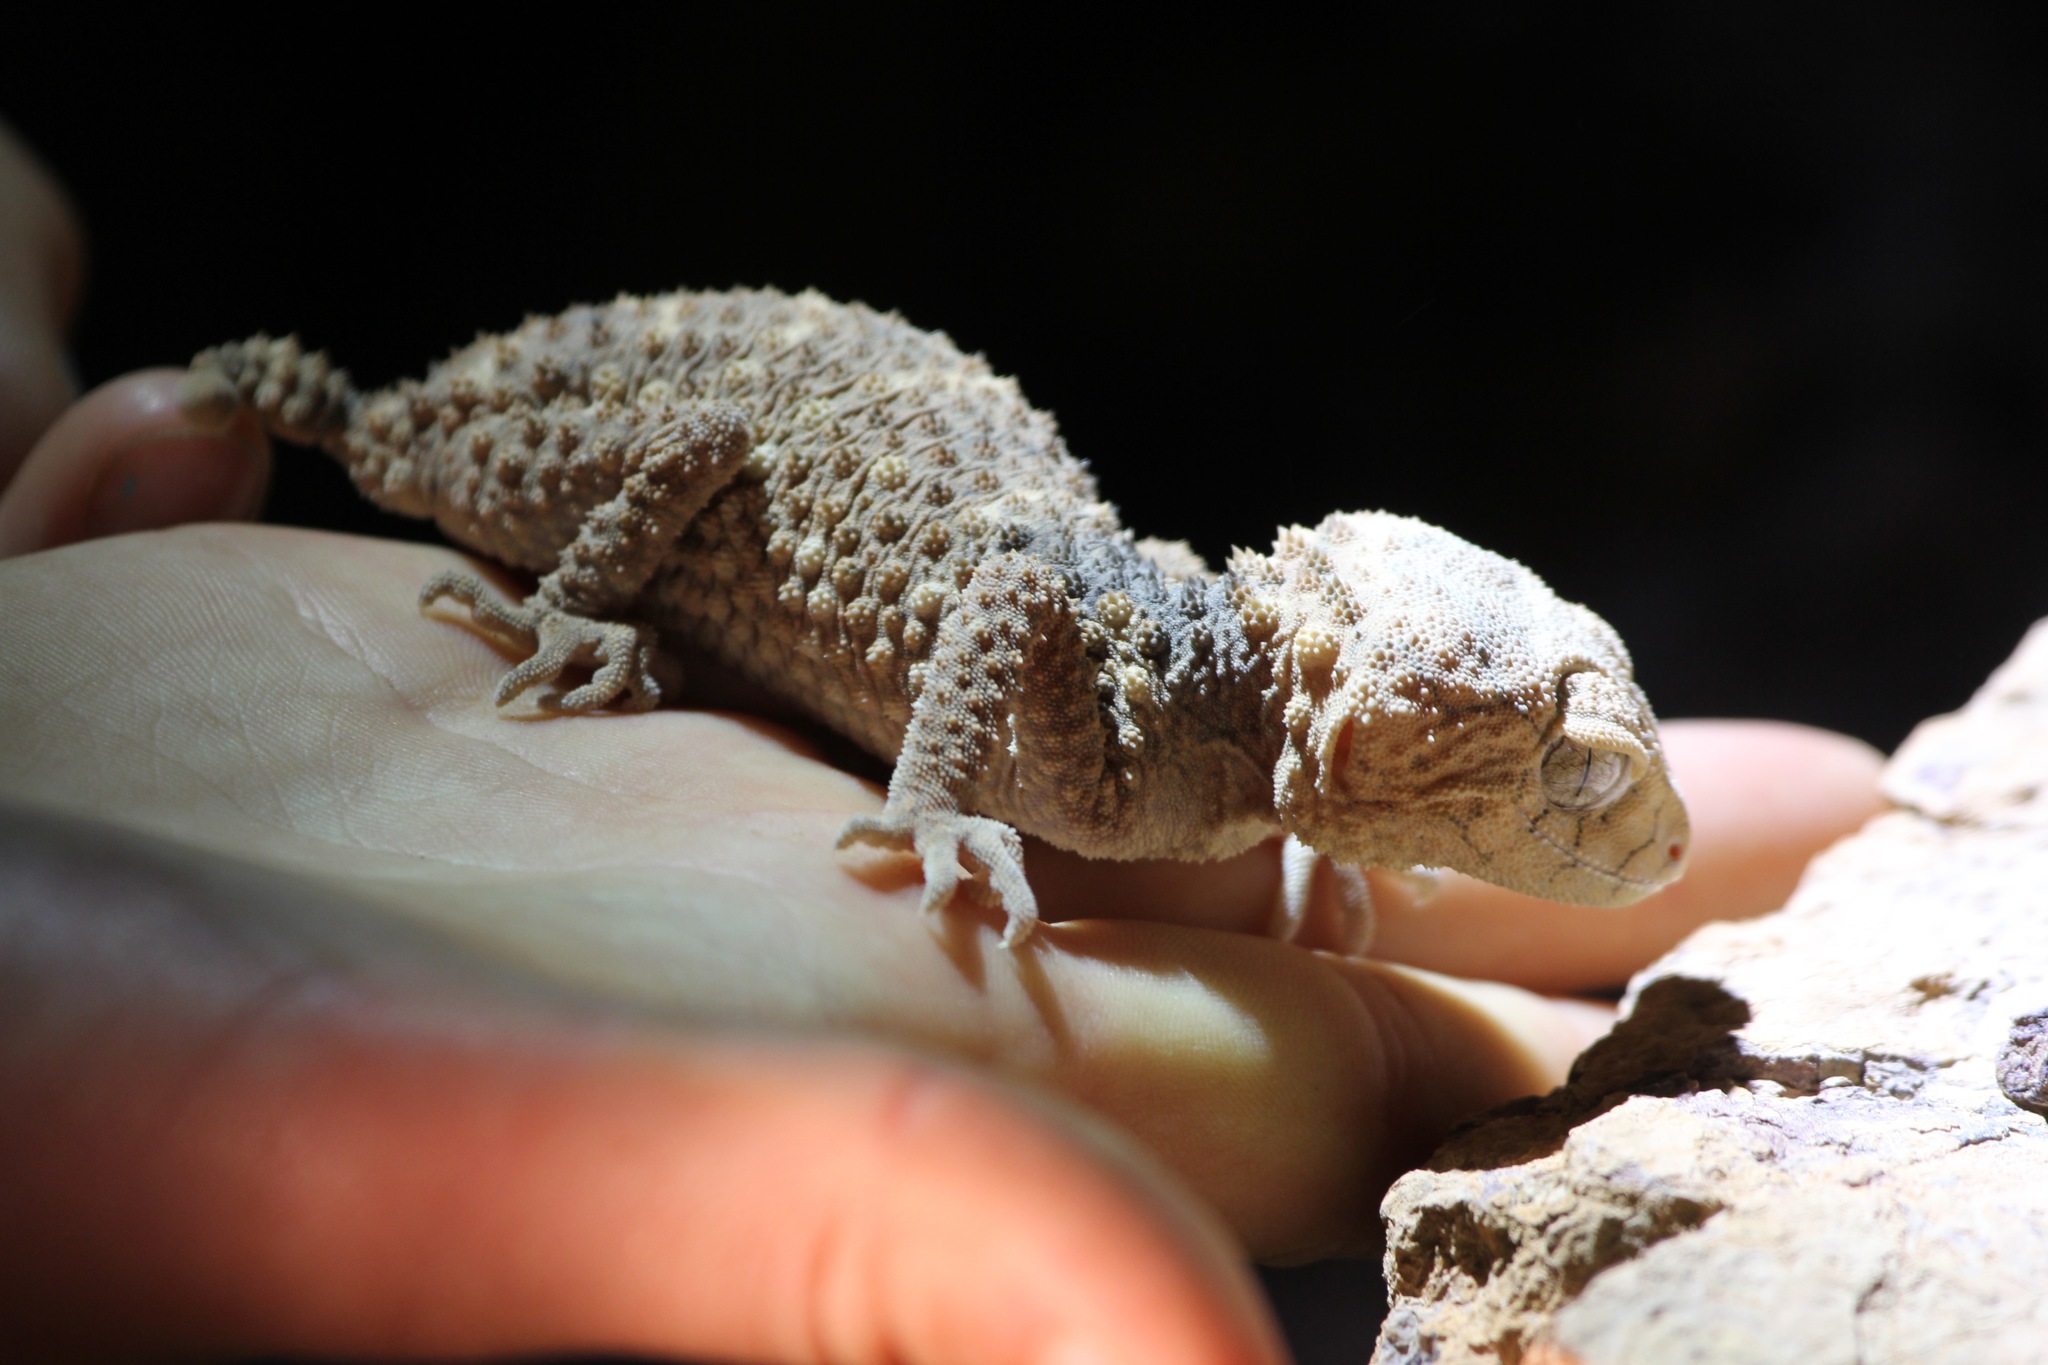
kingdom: Animalia
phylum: Chordata
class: Squamata
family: Carphodactylidae
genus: Nephrurus
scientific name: Nephrurus asper
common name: Rough knob-tail
